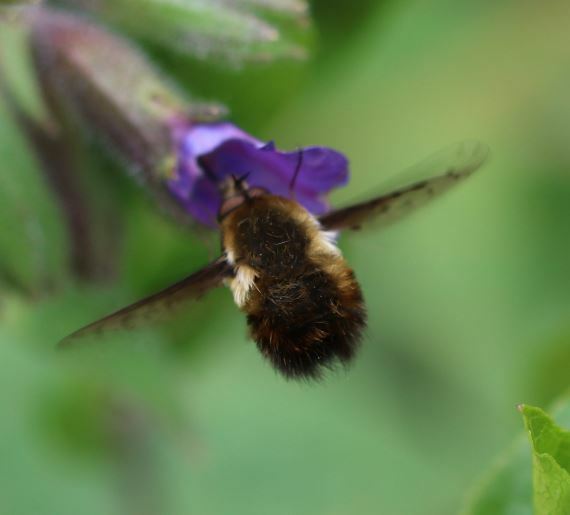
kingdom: Animalia
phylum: Arthropoda
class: Insecta
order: Diptera
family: Bombyliidae
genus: Bombylius
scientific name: Bombylius discolor
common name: Dotted bee-fly
